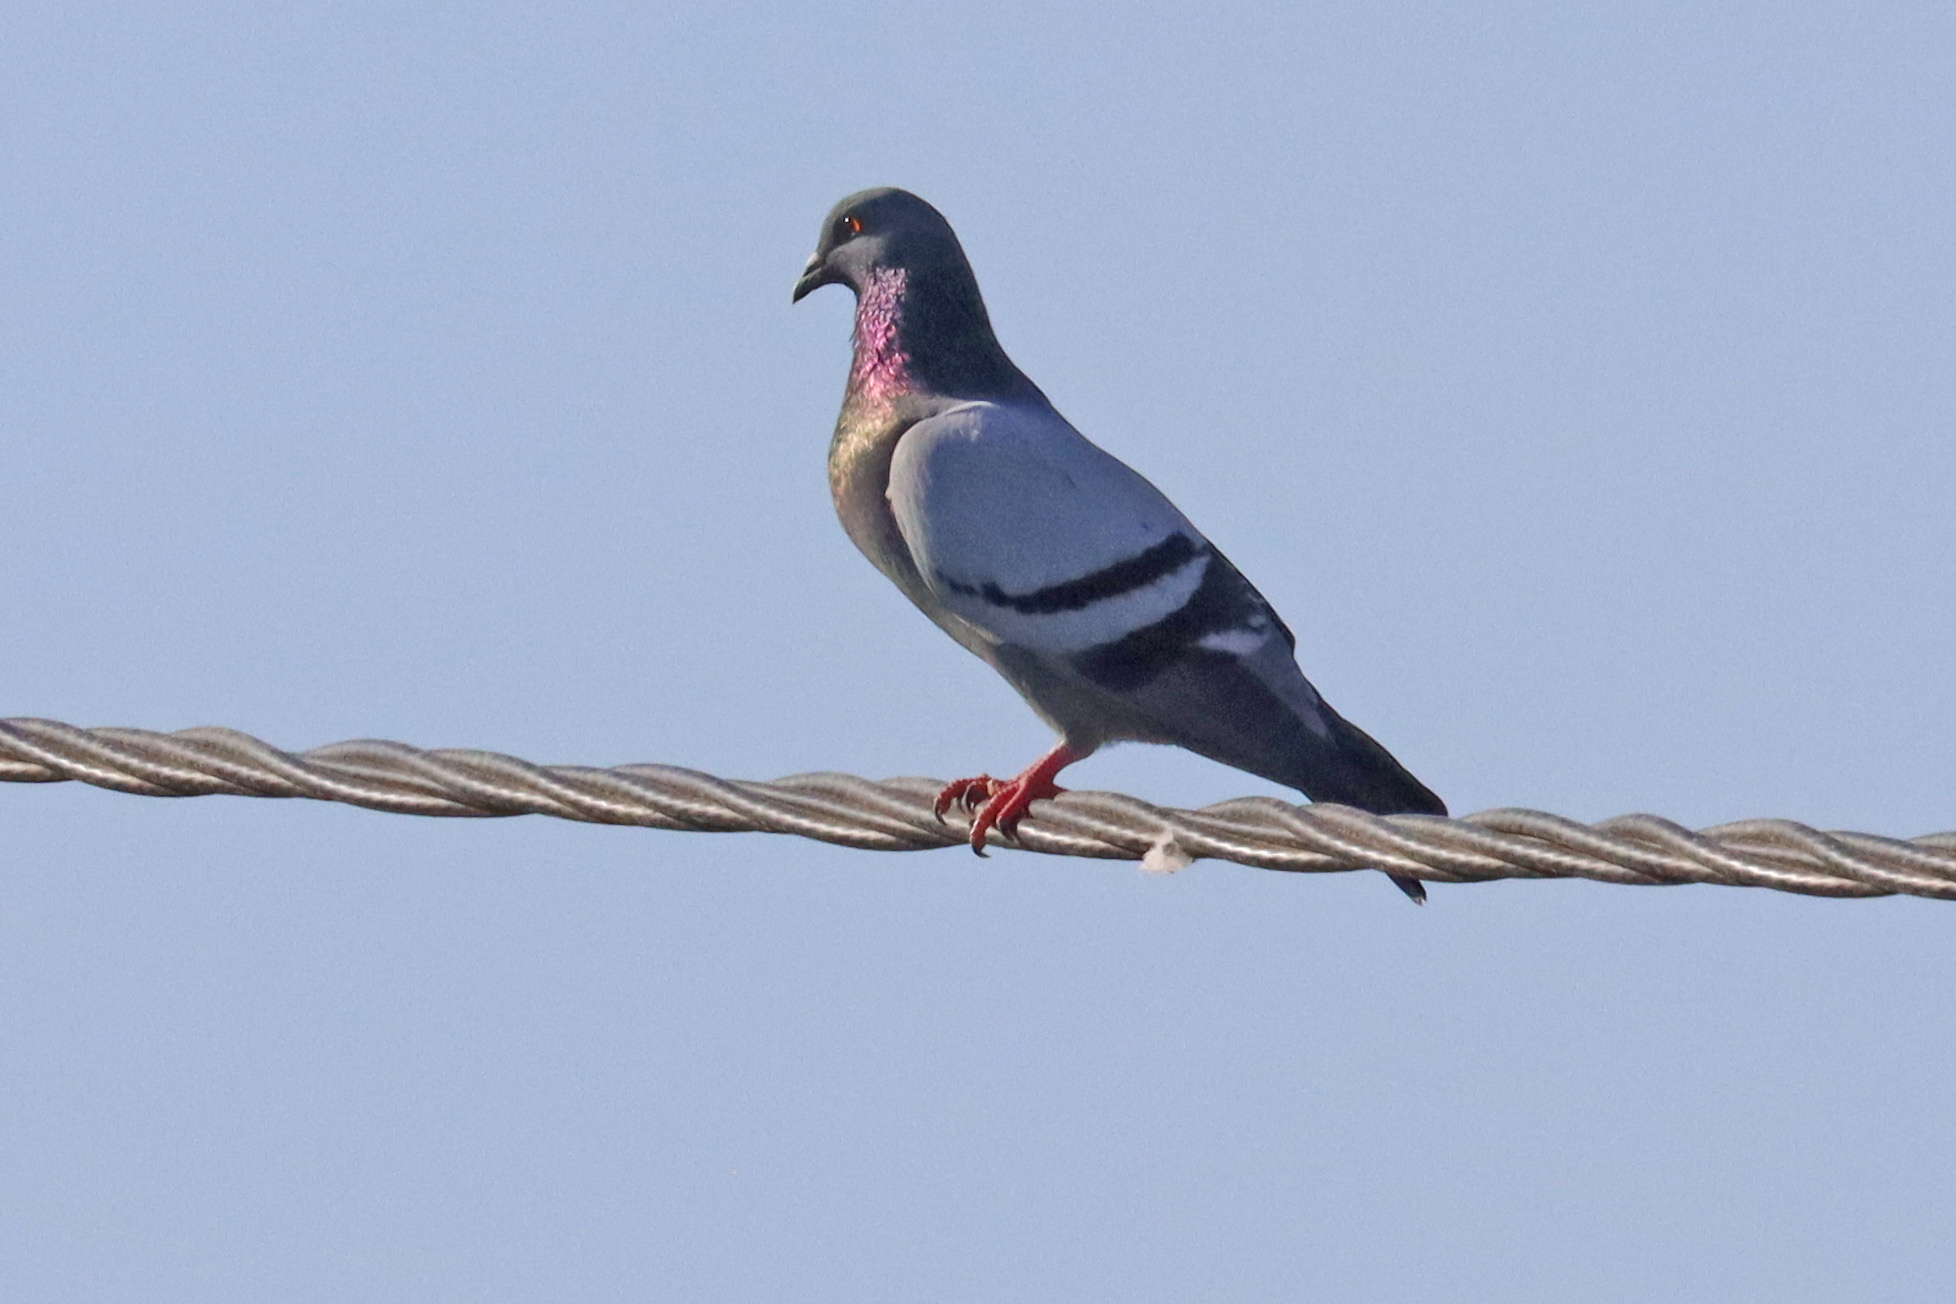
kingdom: Animalia
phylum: Chordata
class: Aves
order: Columbiformes
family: Columbidae
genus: Columba
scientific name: Columba livia
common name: Rock pigeon
